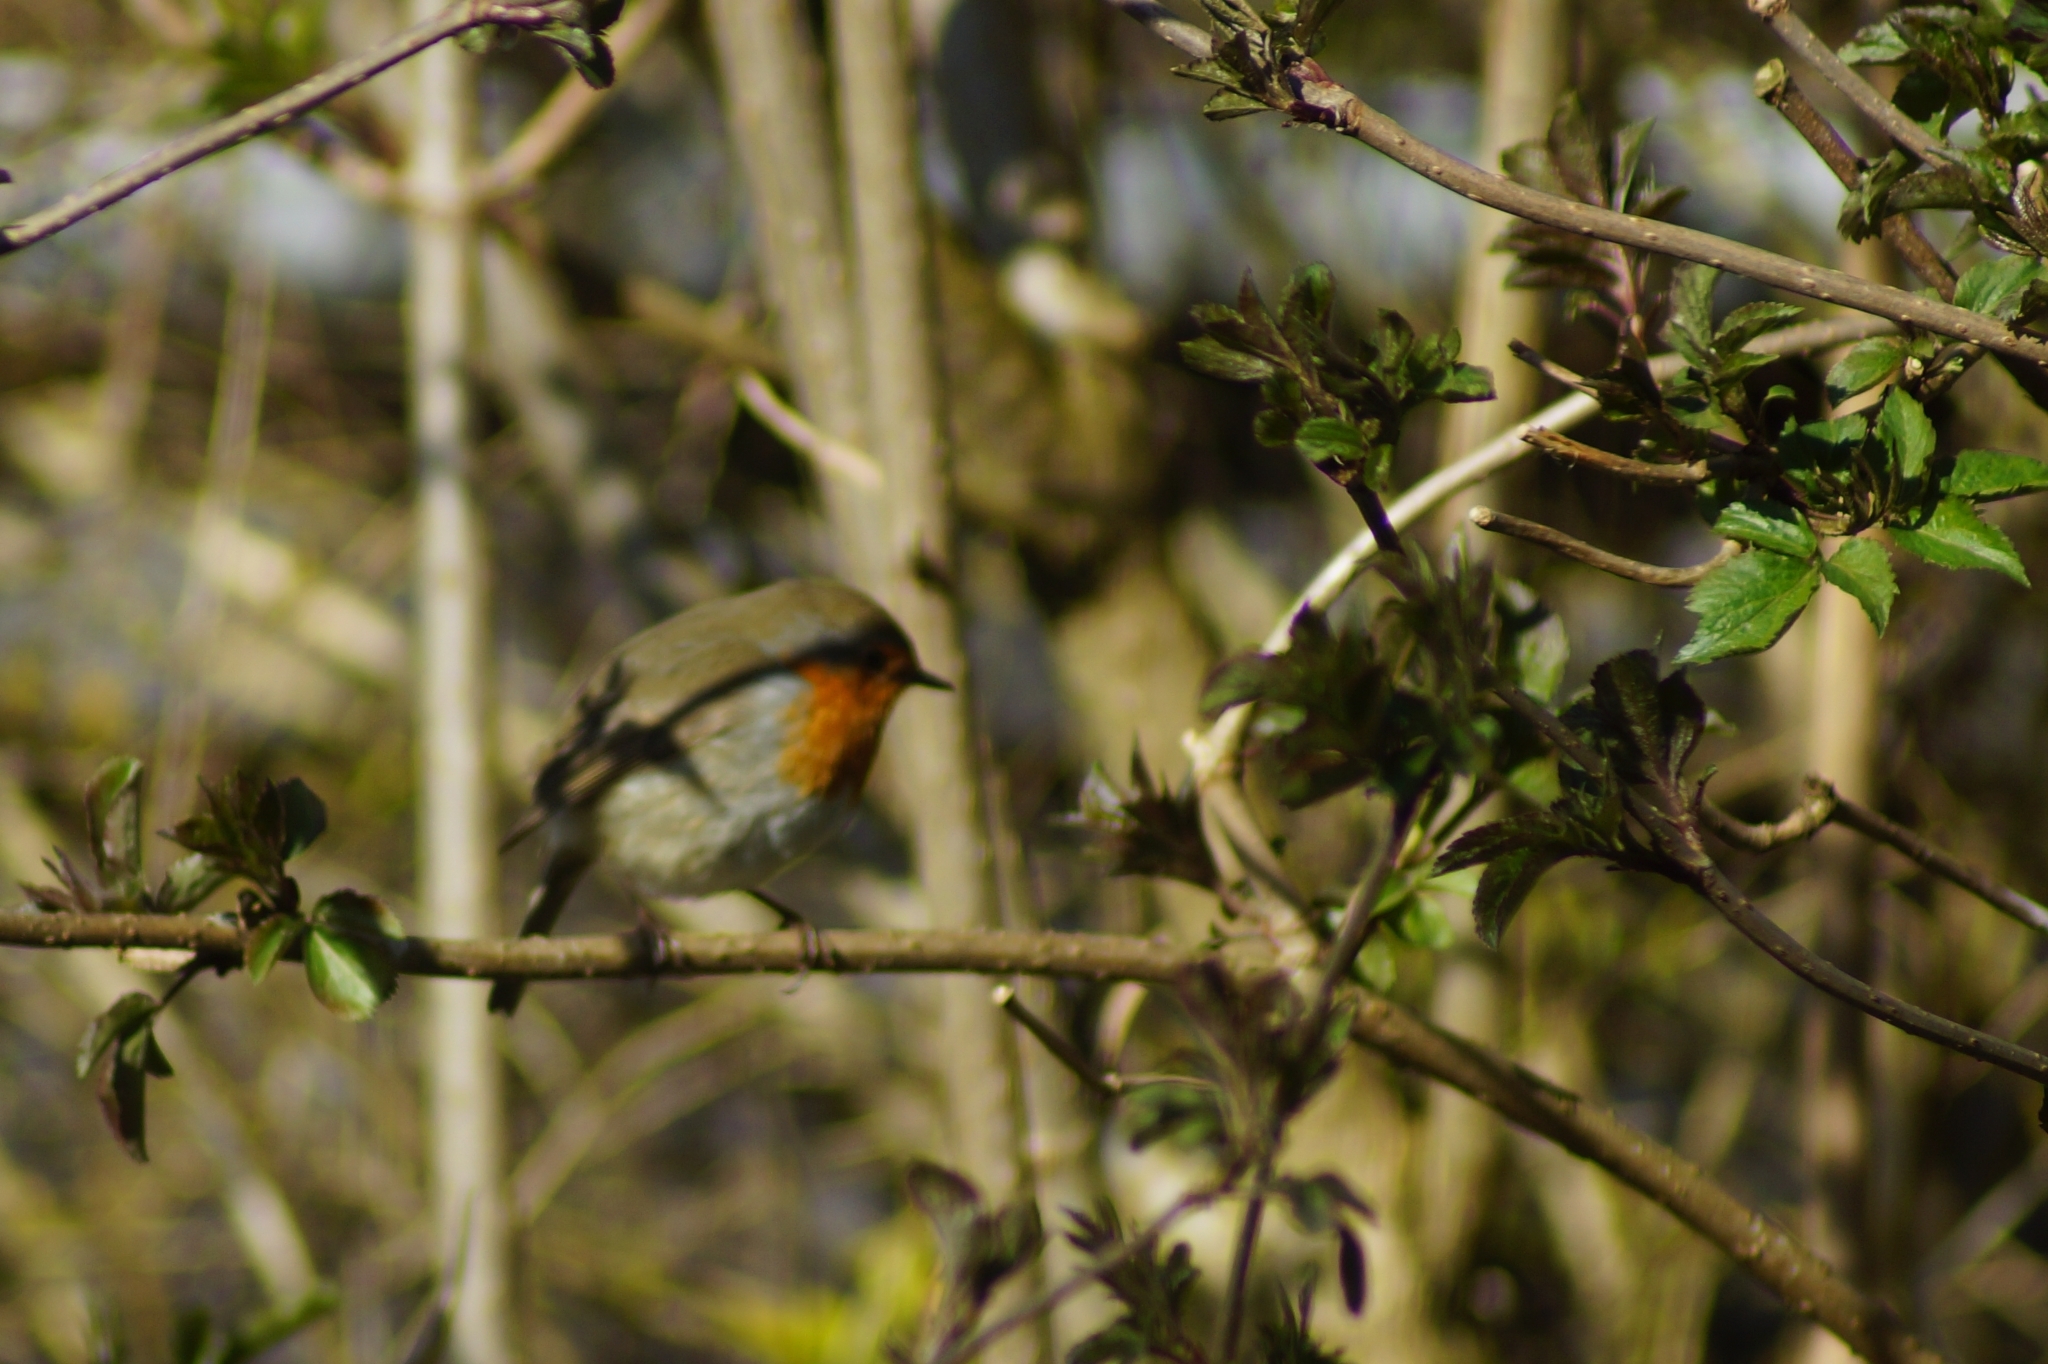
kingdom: Animalia
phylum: Chordata
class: Aves
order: Passeriformes
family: Muscicapidae
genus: Erithacus
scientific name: Erithacus rubecula
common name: European robin
